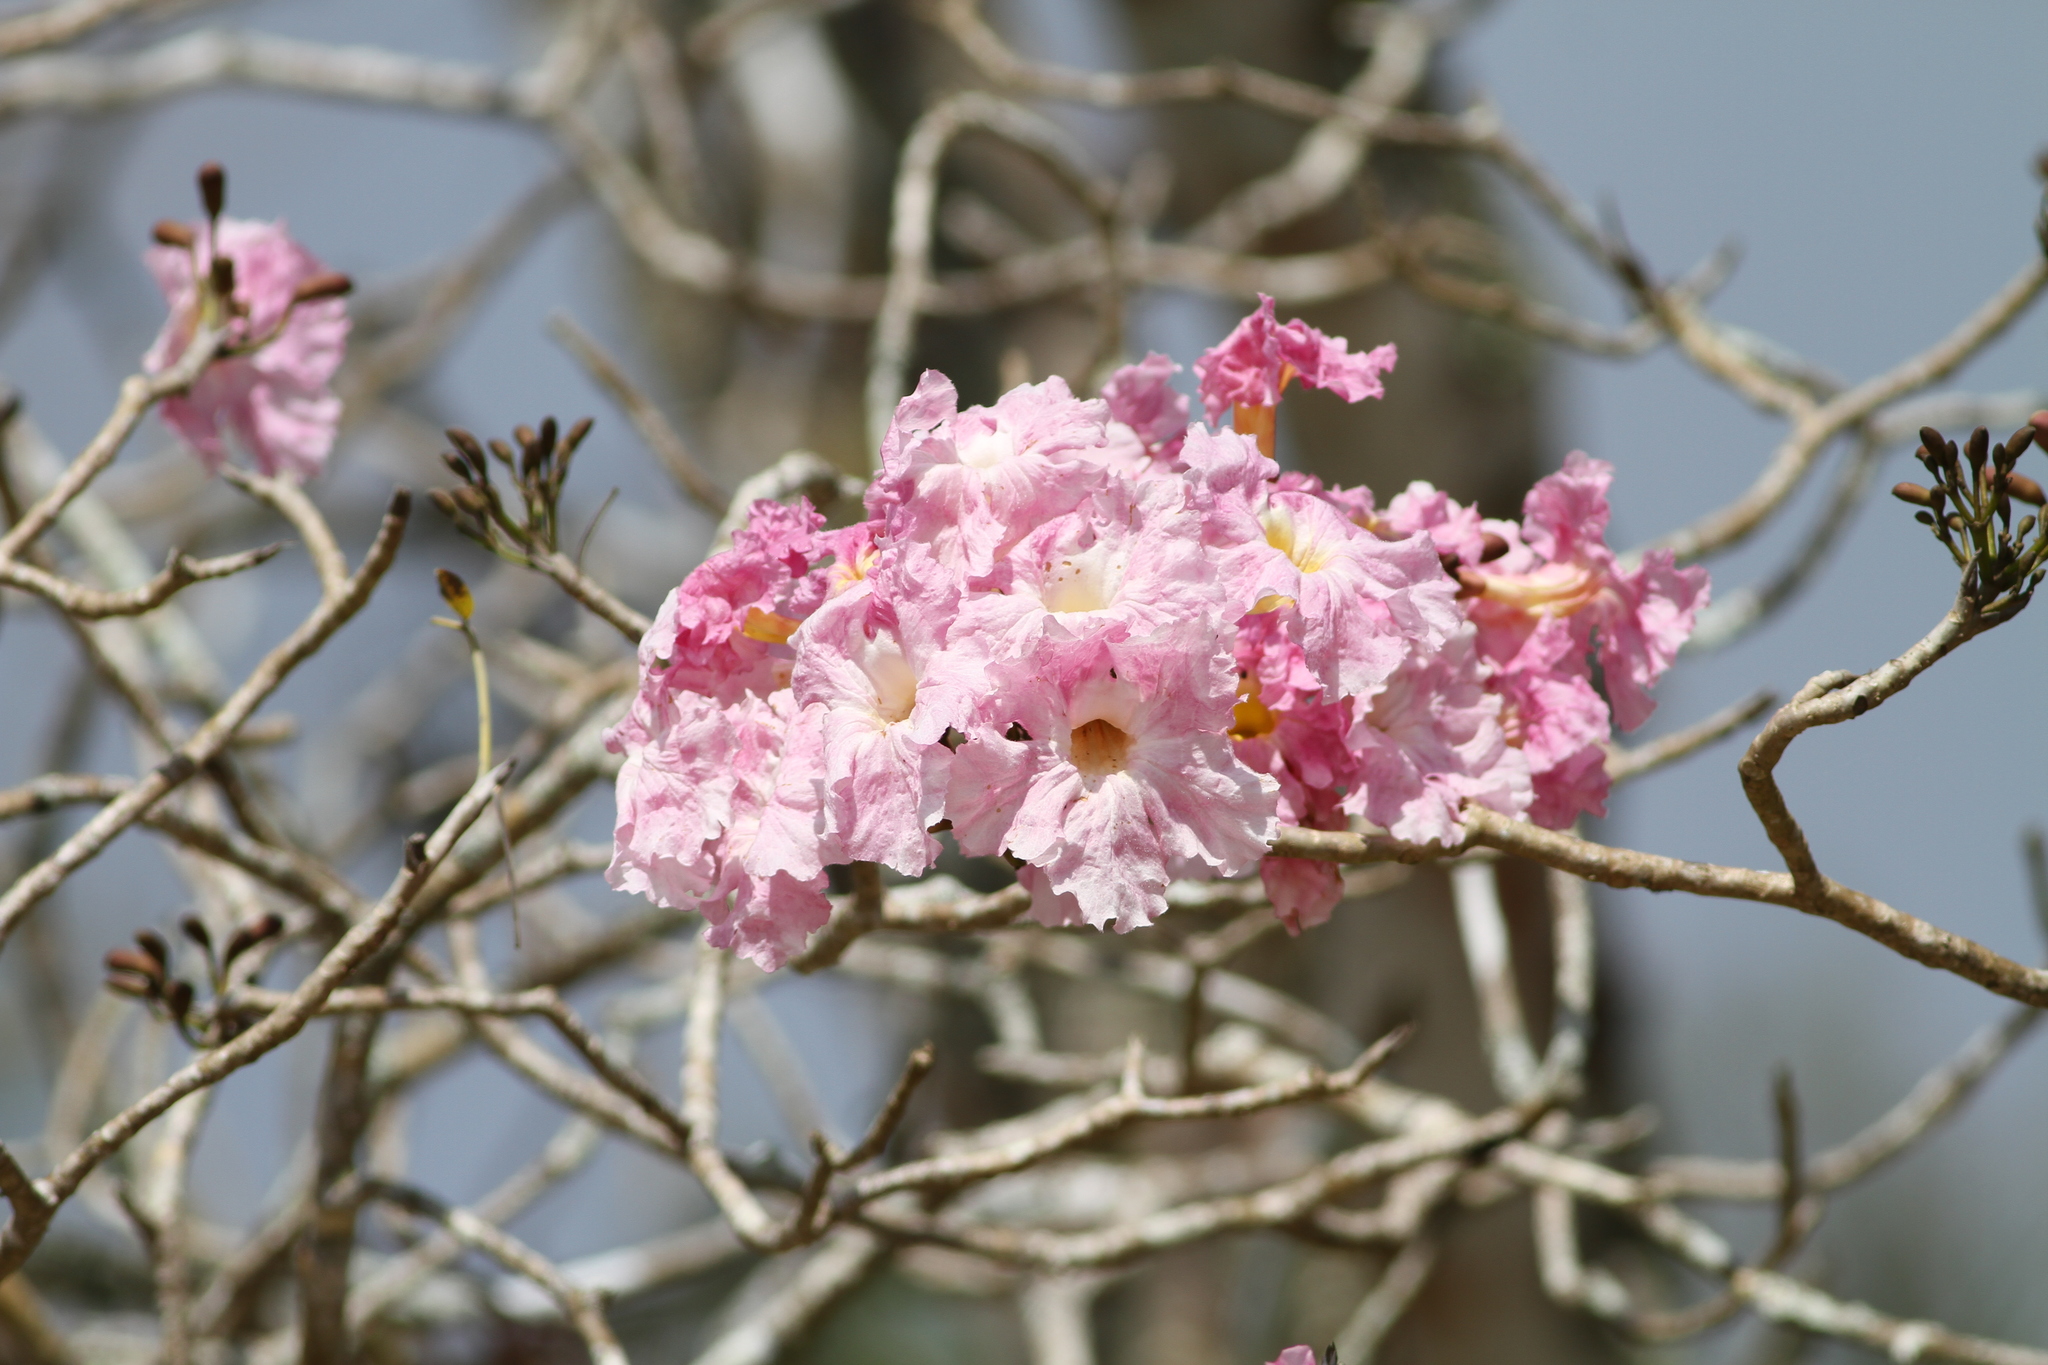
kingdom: Plantae
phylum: Tracheophyta
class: Magnoliopsida
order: Lamiales
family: Bignoniaceae
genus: Tabebuia
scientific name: Tabebuia rosea
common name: Pink poui
